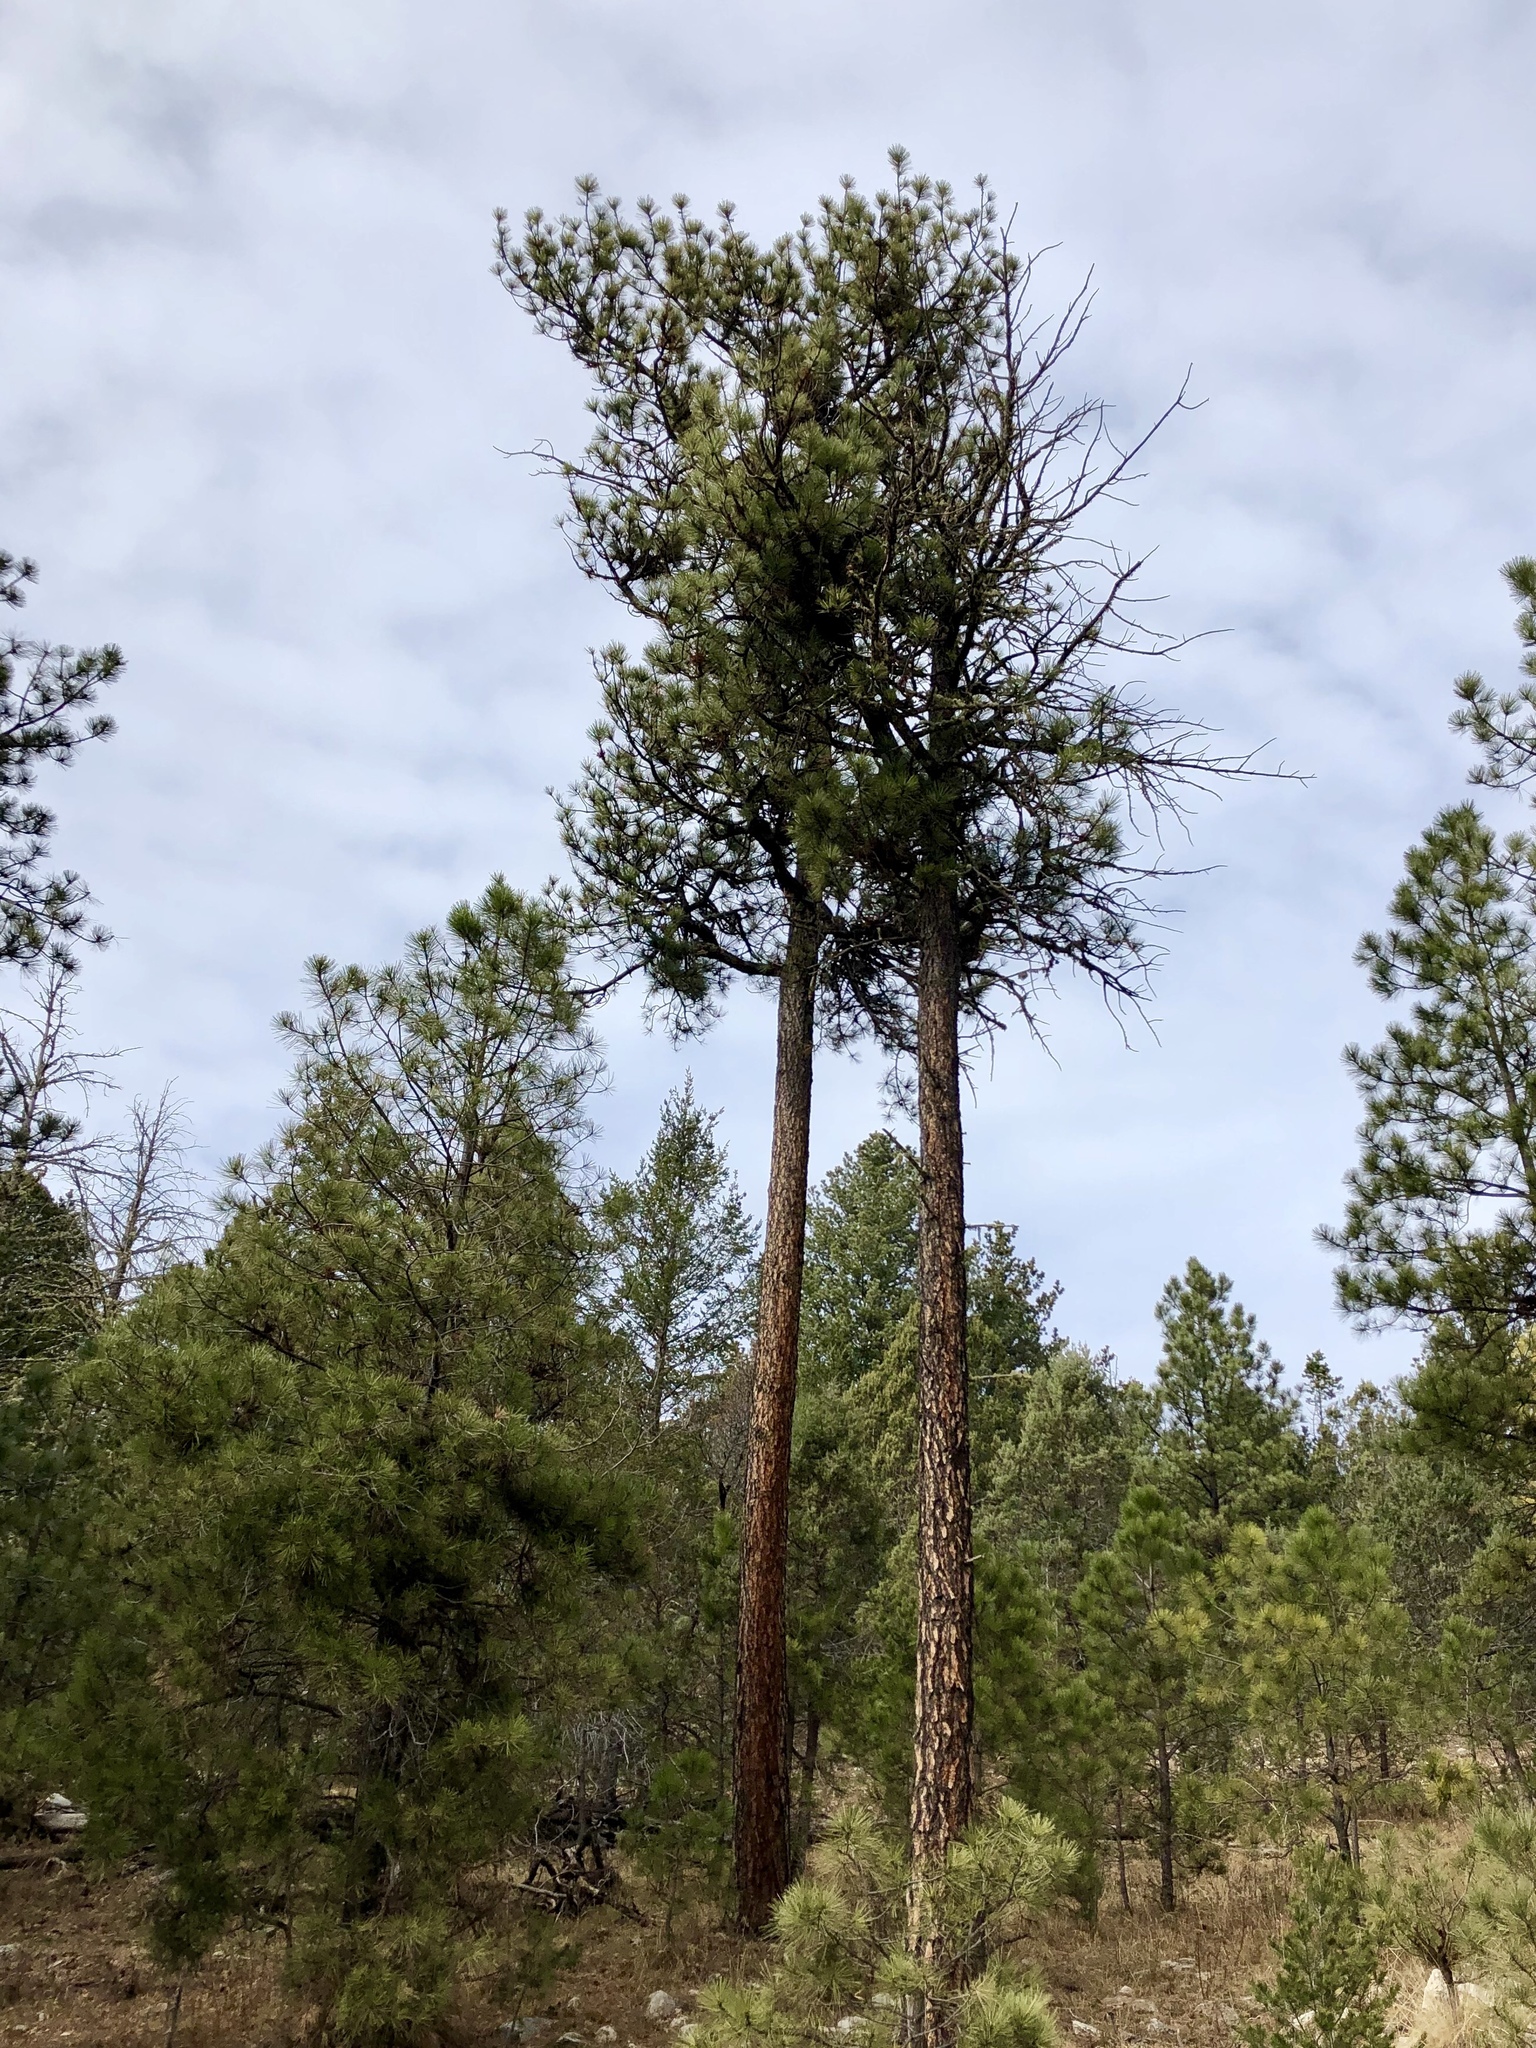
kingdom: Plantae
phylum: Tracheophyta
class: Pinopsida
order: Pinales
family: Pinaceae
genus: Pinus
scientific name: Pinus ponderosa
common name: Western yellow-pine
